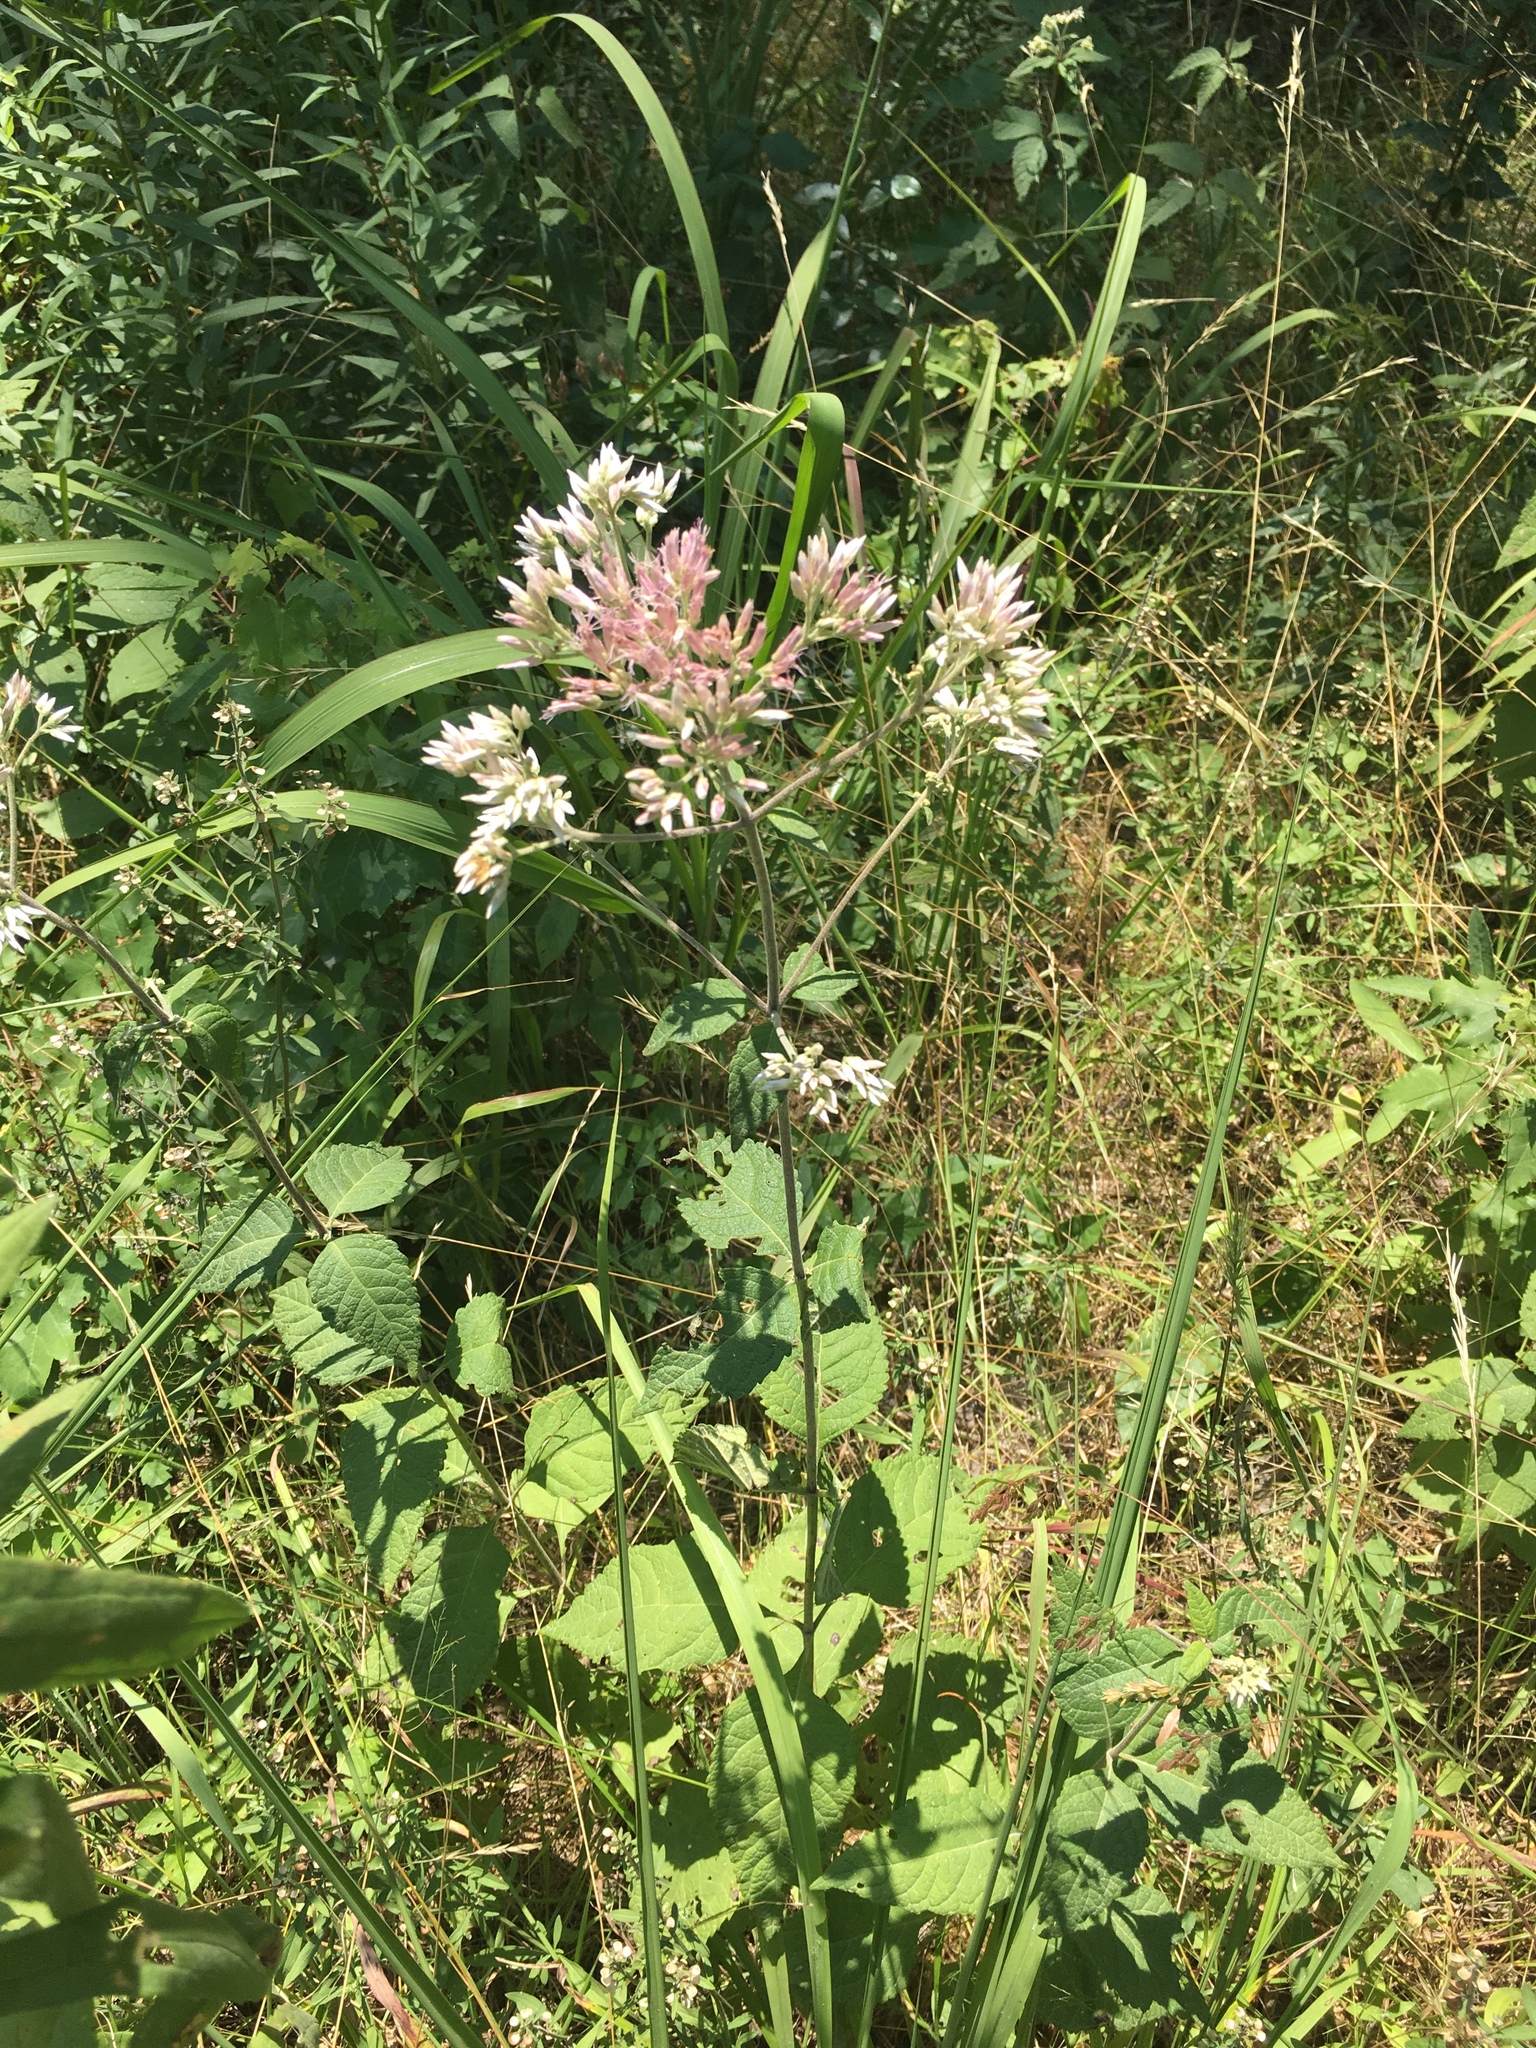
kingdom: Plantae
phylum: Tracheophyta
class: Magnoliopsida
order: Asterales
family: Asteraceae
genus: Eutrochium
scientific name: Eutrochium purpureum
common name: Gravelroot
